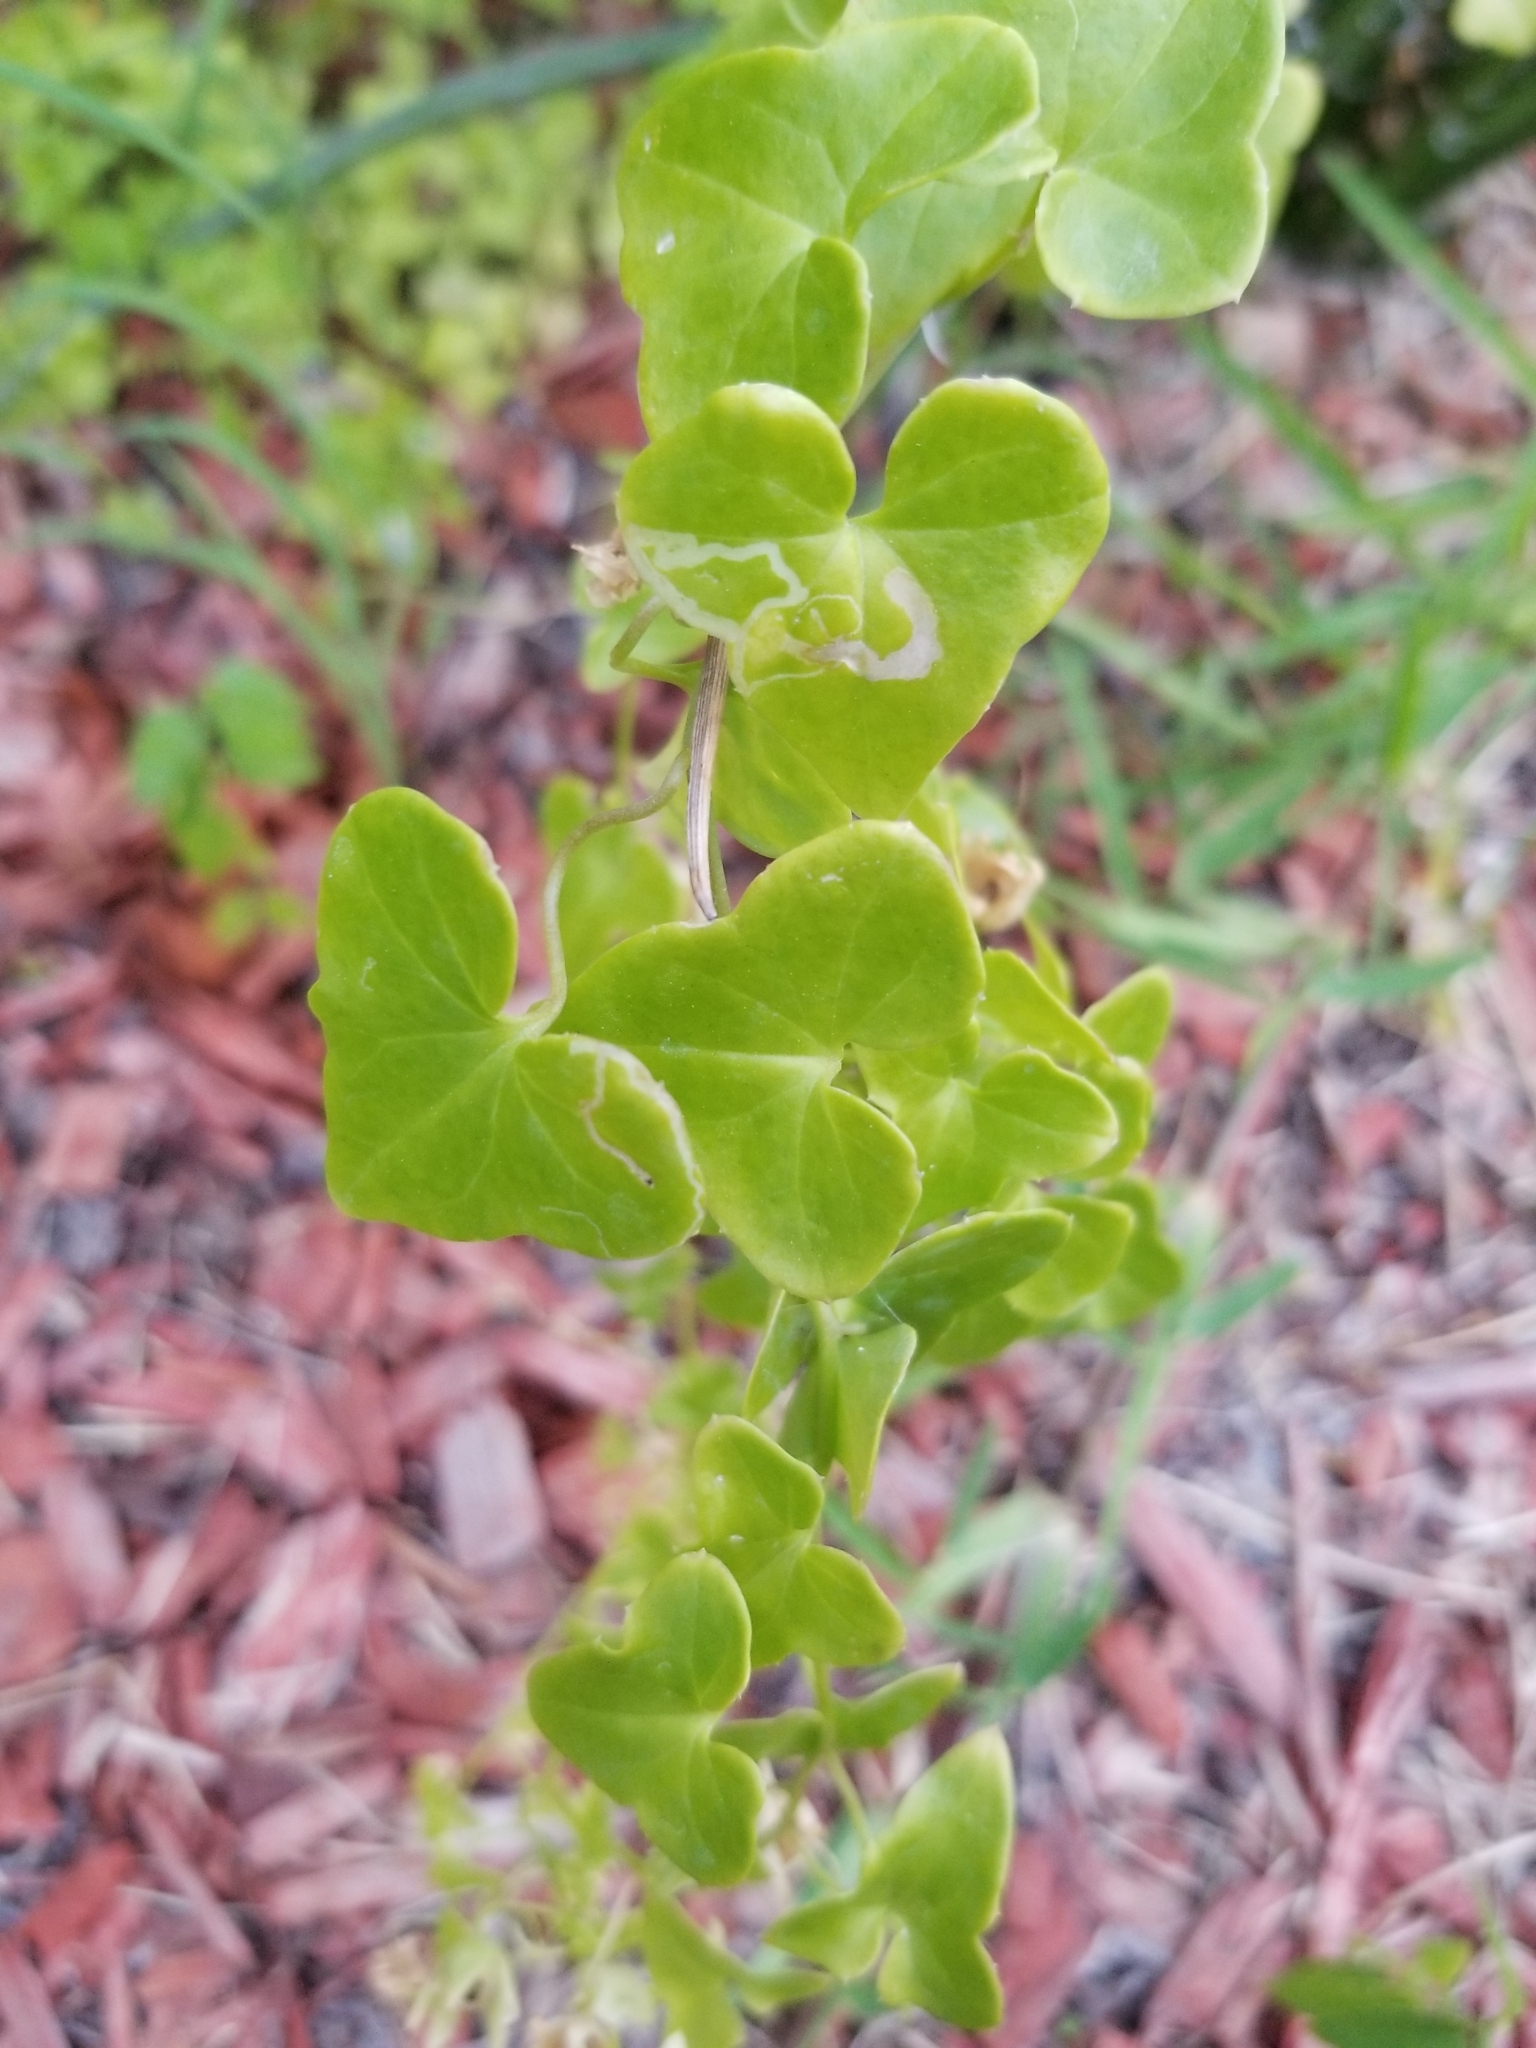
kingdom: Plantae
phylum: Tracheophyta
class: Magnoliopsida
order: Lamiales
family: Plantaginaceae
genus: Maurandella
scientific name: Maurandella antirrhiniflora
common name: Violet twining-snapdragon
